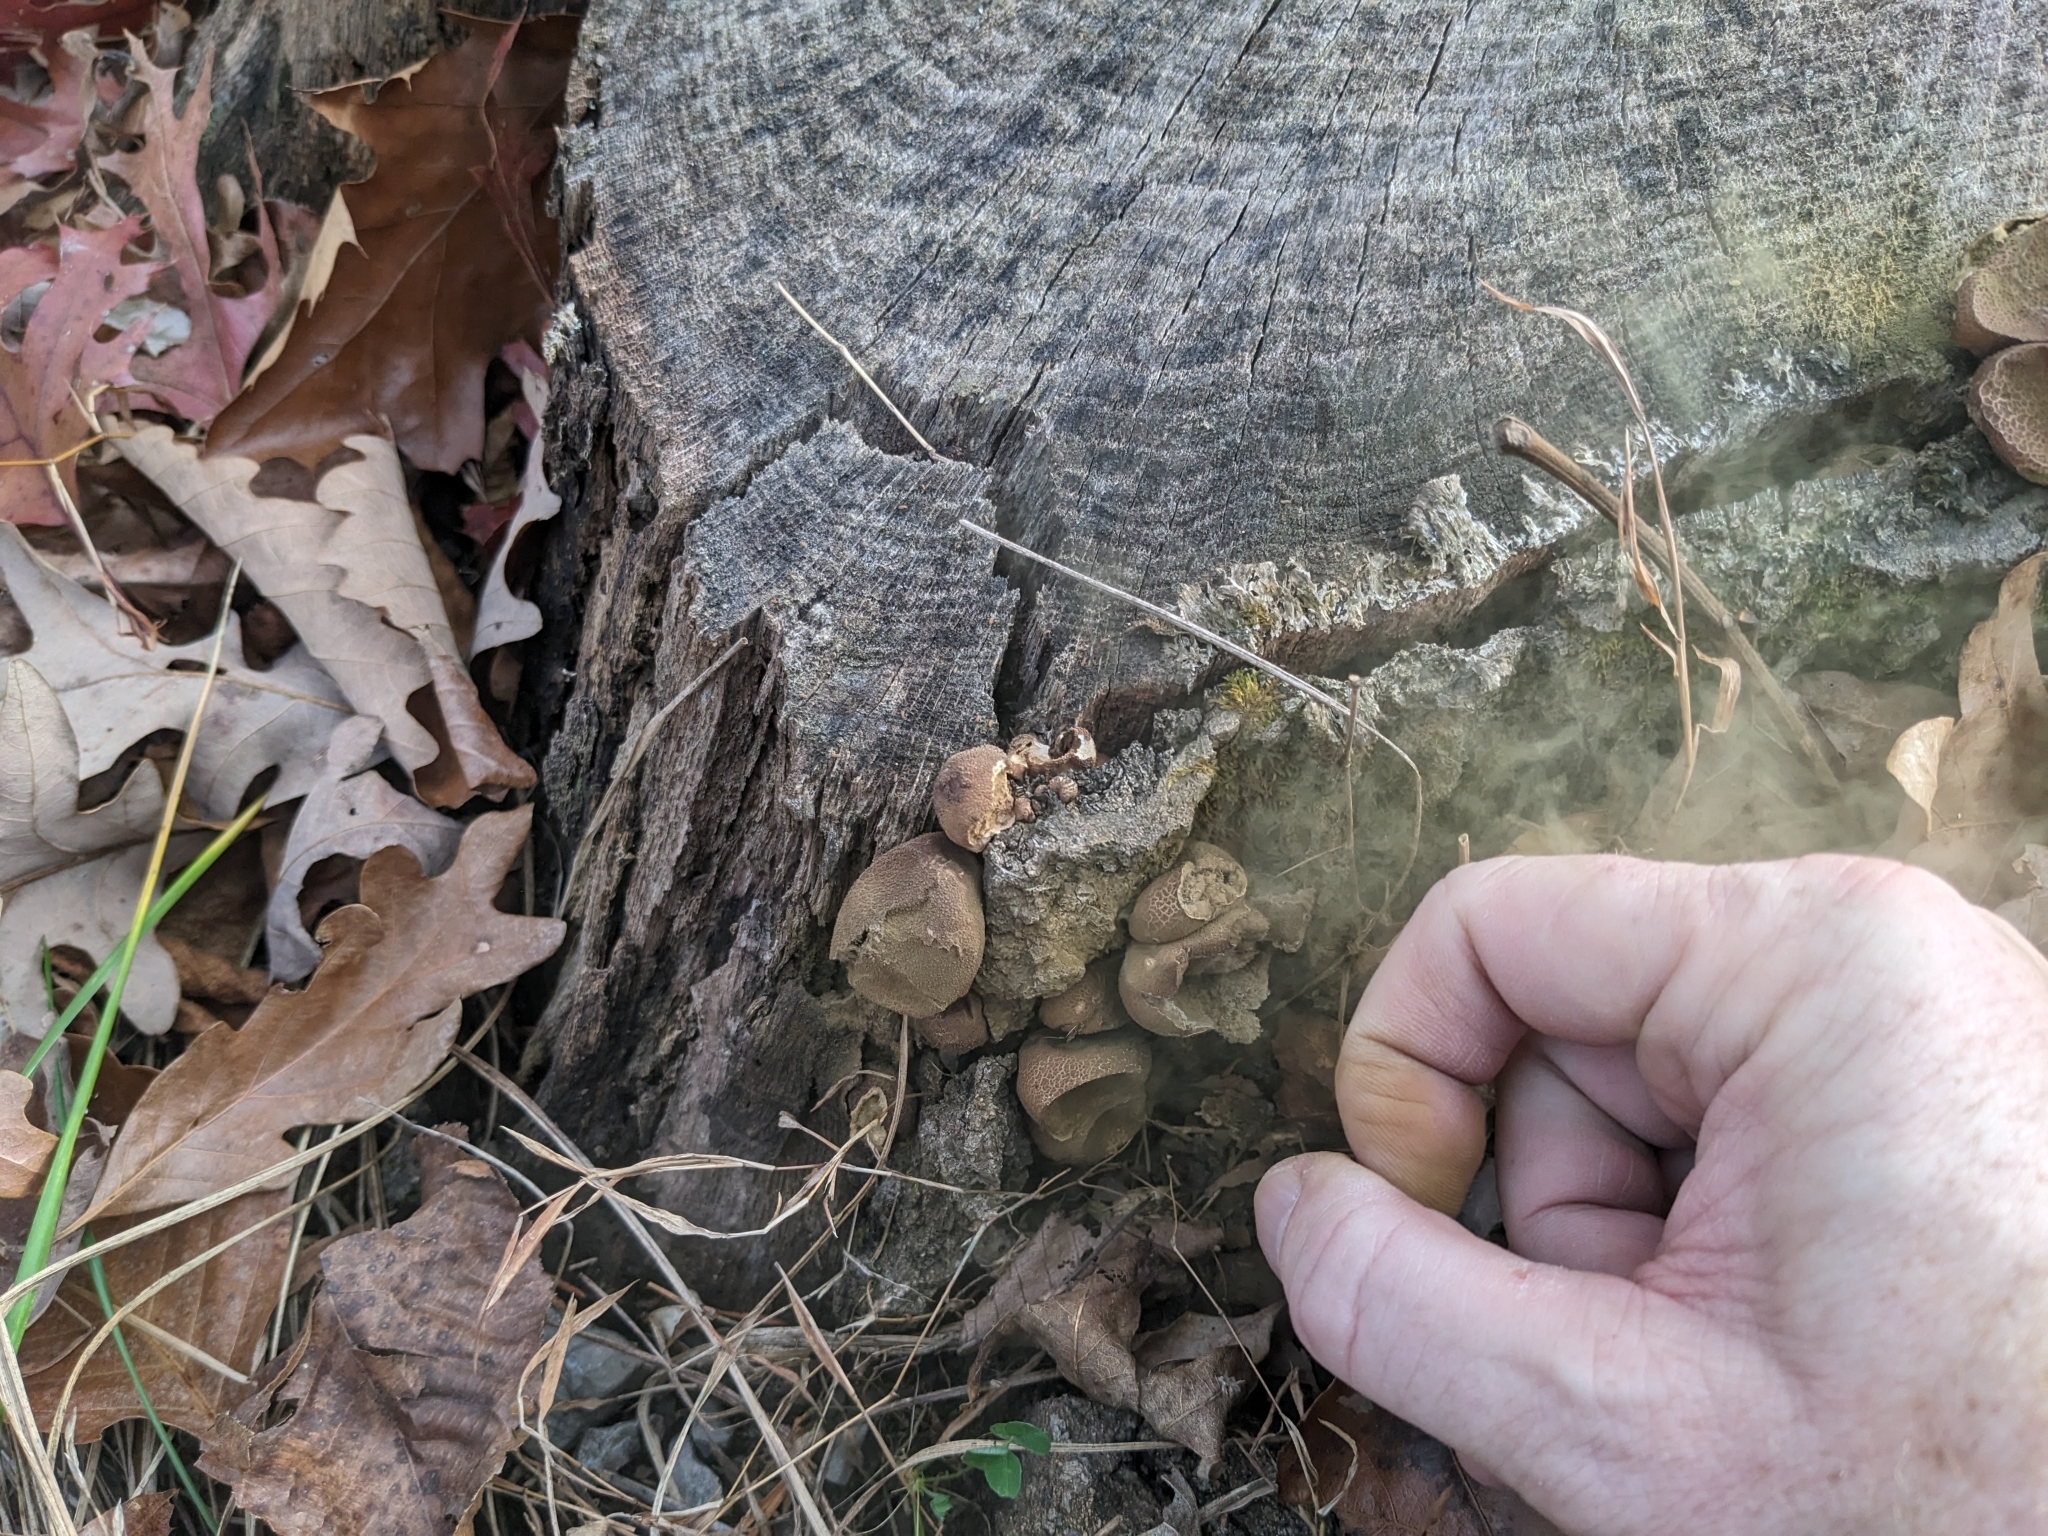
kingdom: Fungi
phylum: Basidiomycota
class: Agaricomycetes
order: Agaricales
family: Lycoperdaceae
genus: Apioperdon
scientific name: Apioperdon pyriforme
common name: Pear-shaped puffball
